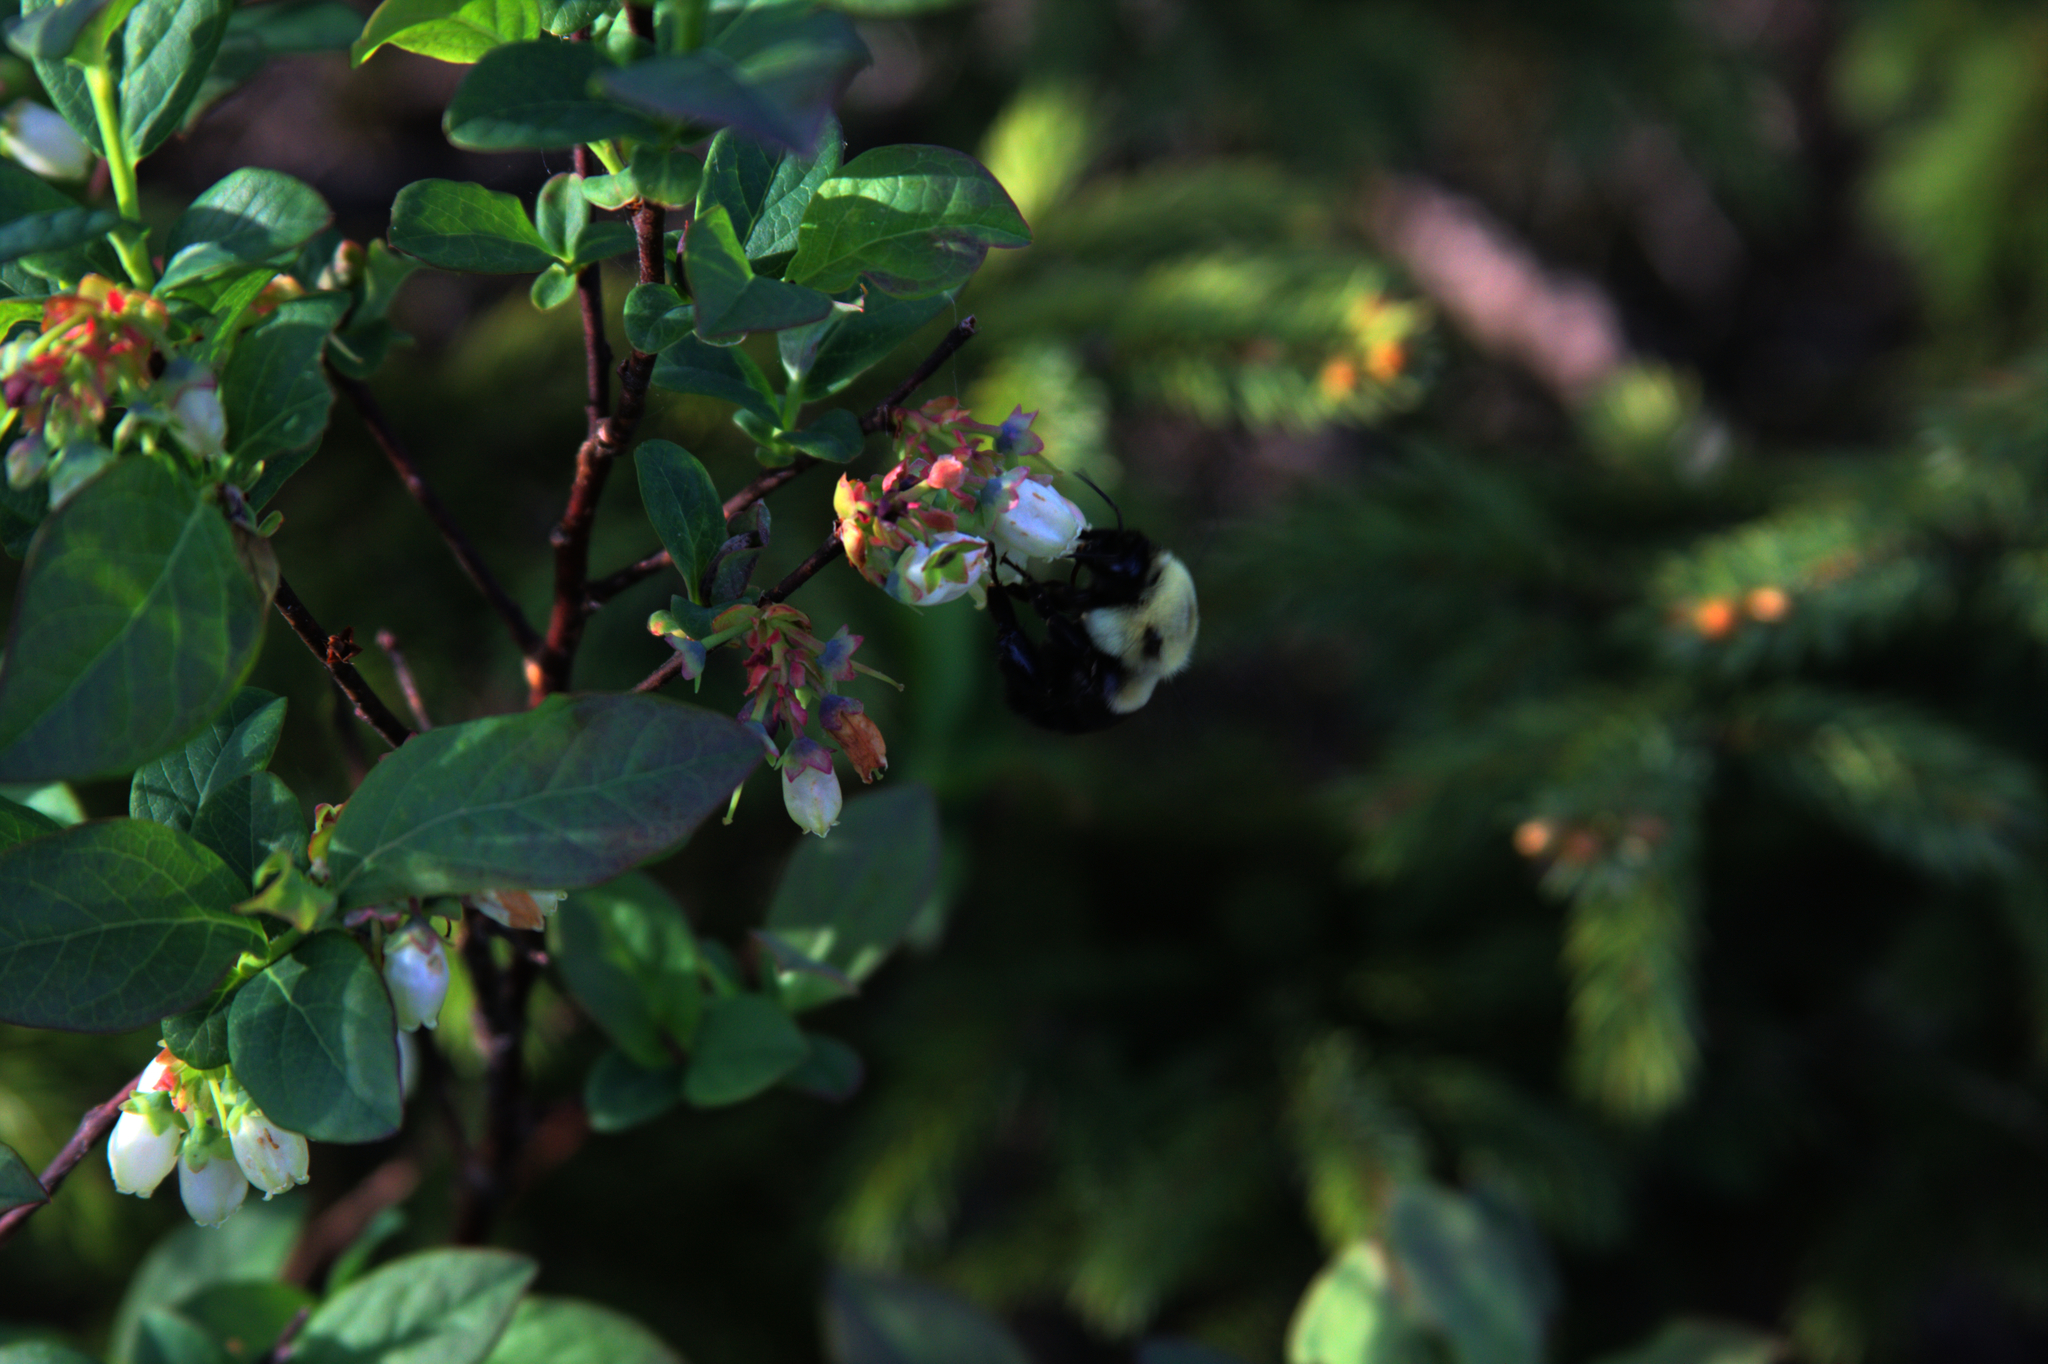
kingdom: Animalia
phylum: Arthropoda
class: Insecta
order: Hymenoptera
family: Apidae
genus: Bombus
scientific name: Bombus impatiens
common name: Common eastern bumble bee
